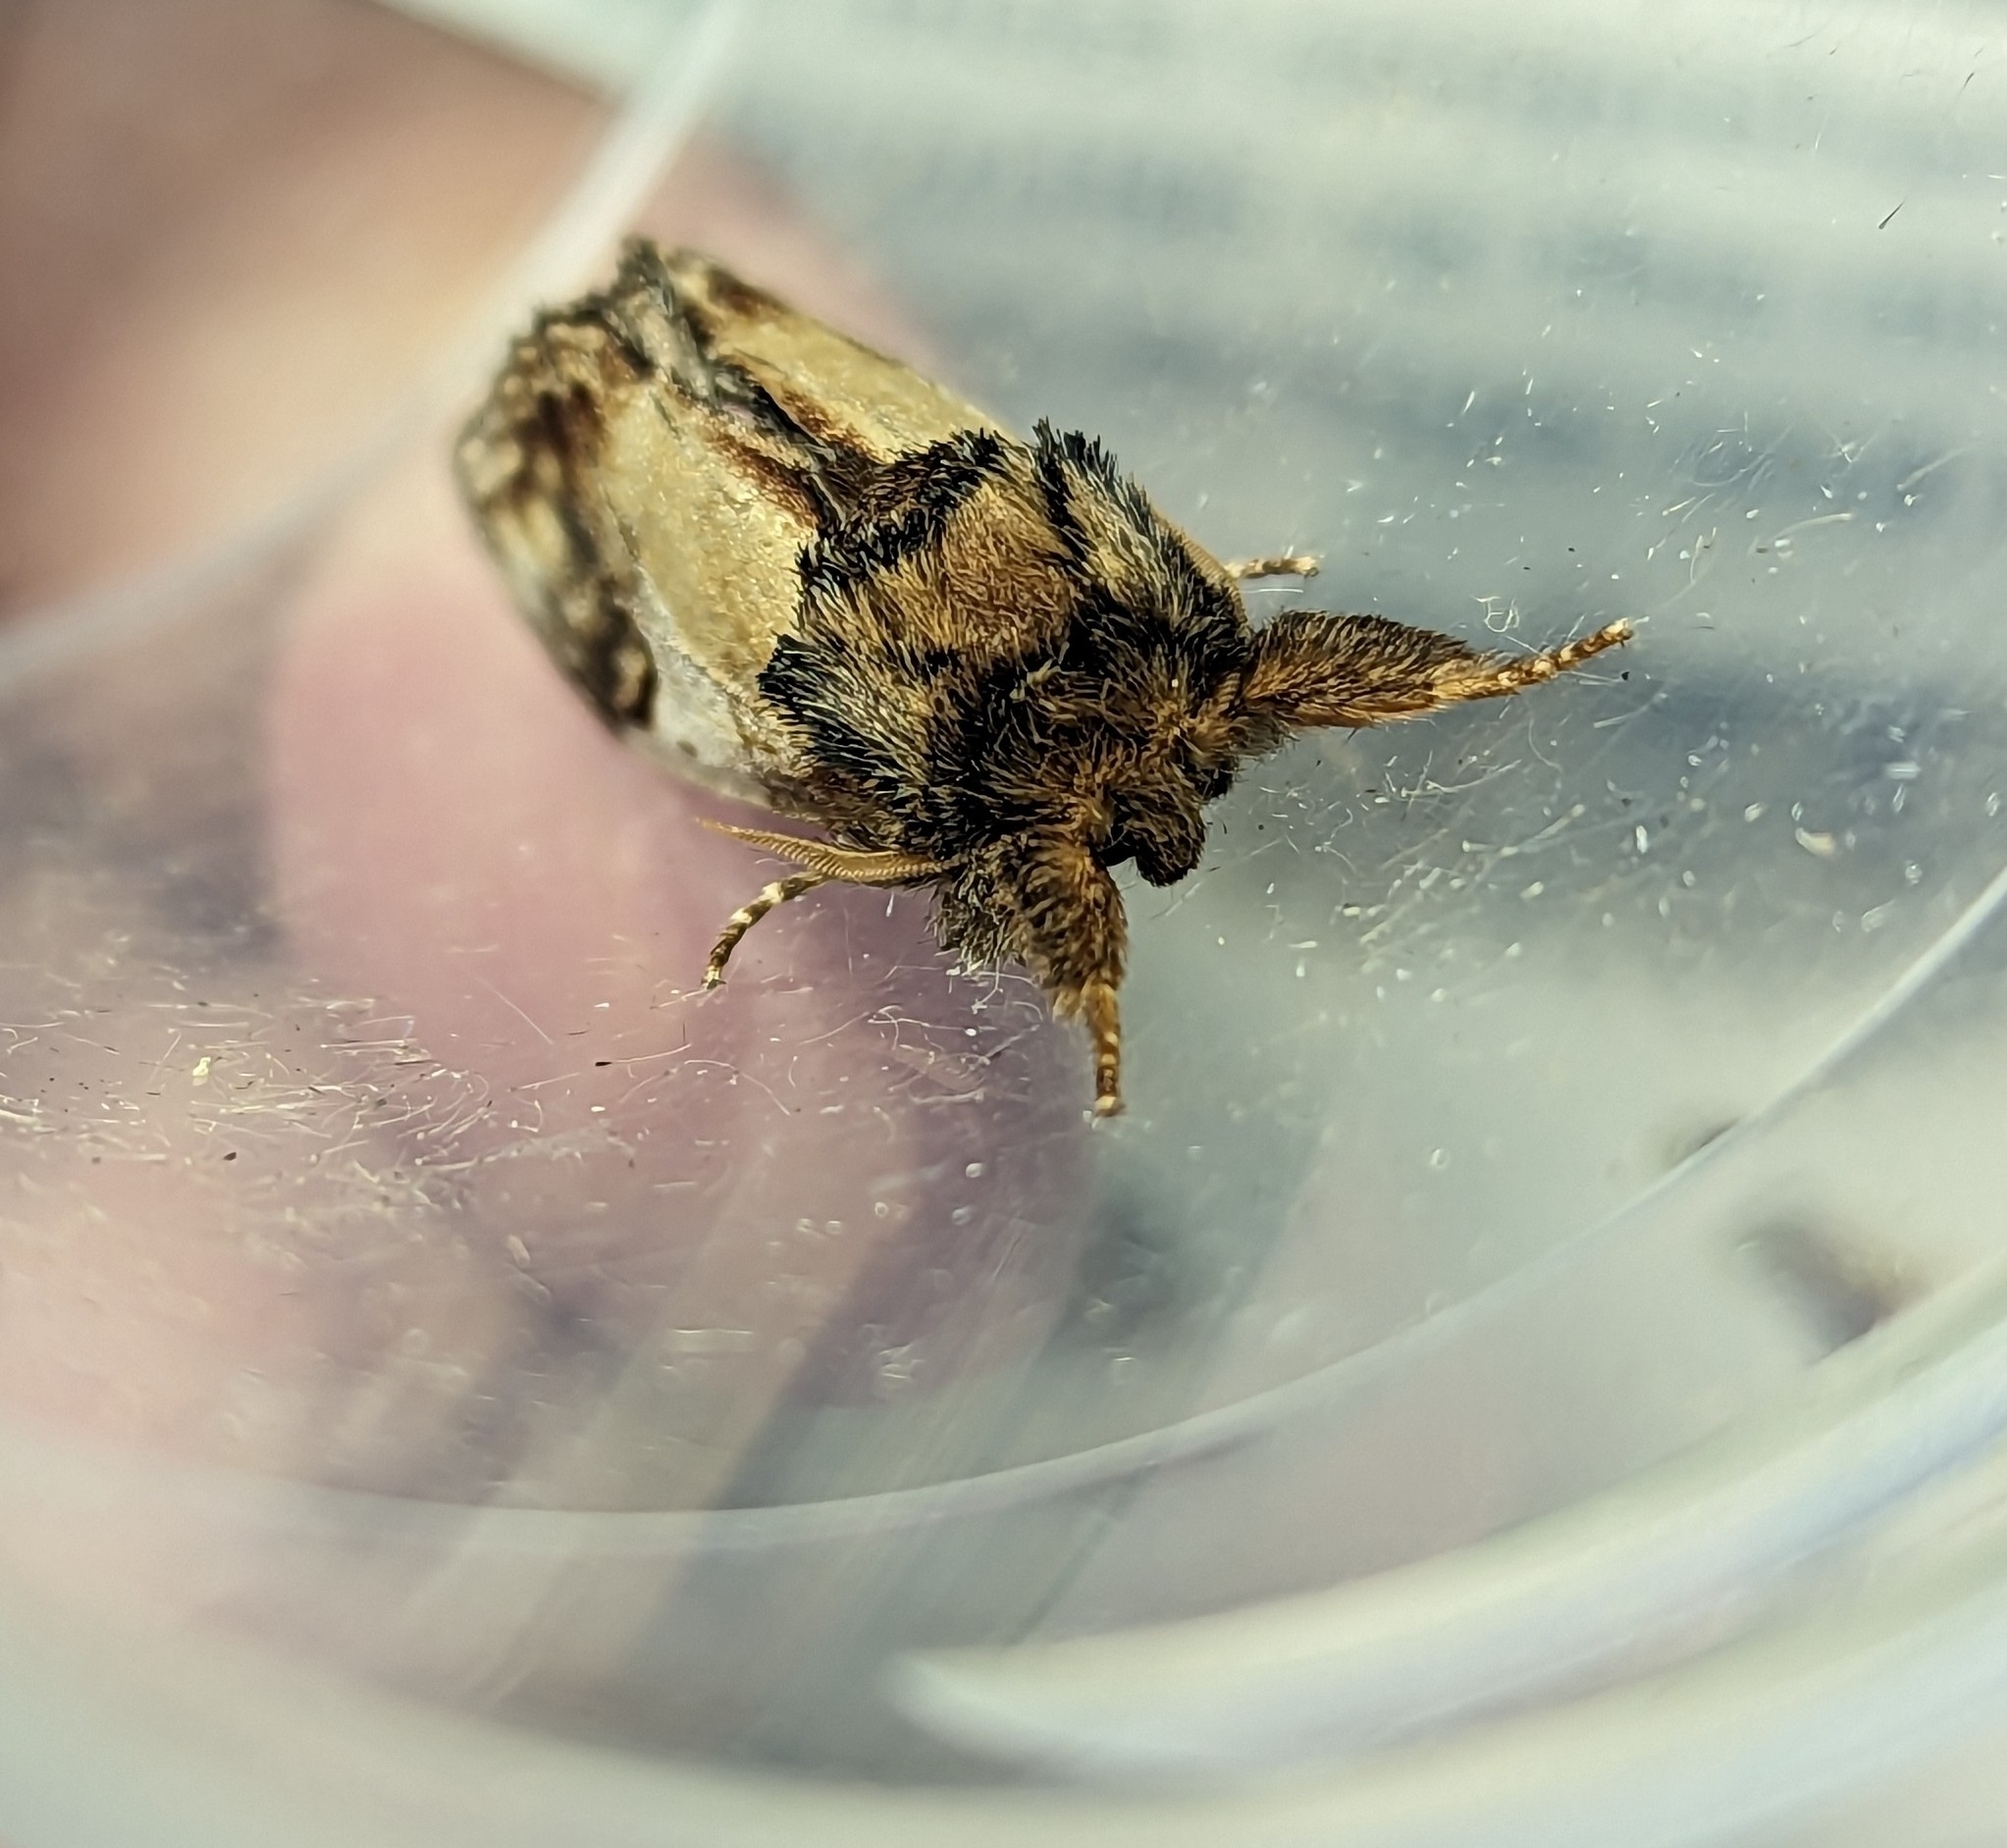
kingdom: Animalia
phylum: Arthropoda
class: Insecta
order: Lepidoptera
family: Notodontidae
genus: Notodonta
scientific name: Notodonta ziczac
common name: Pebble prominent
